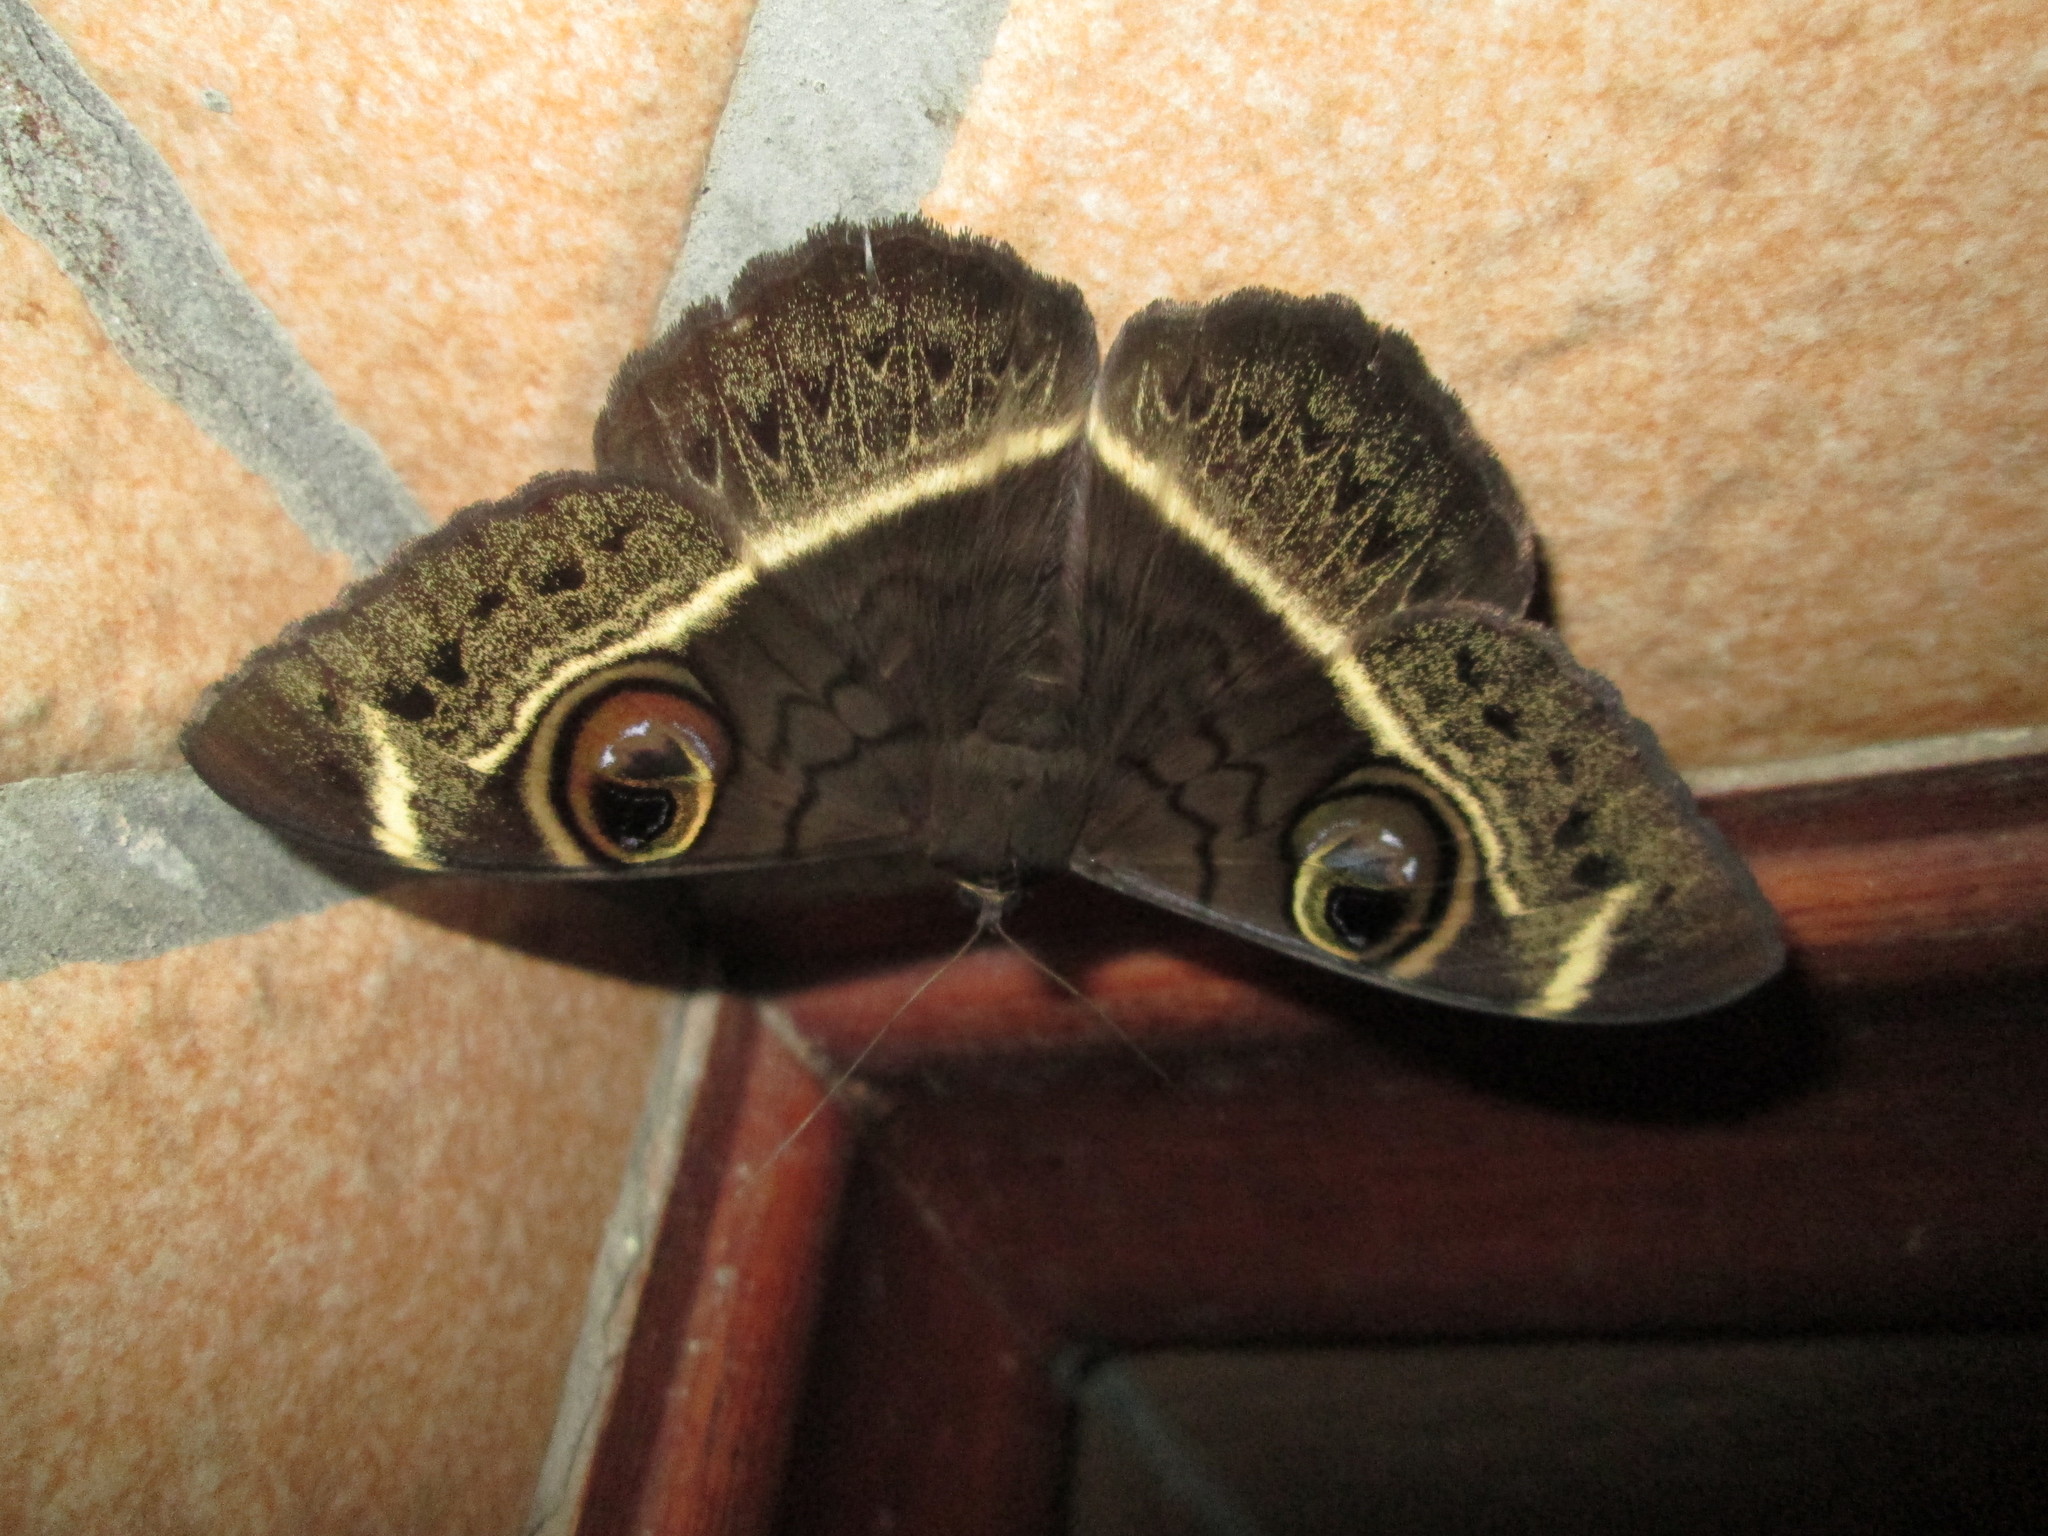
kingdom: Animalia
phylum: Arthropoda
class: Insecta
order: Lepidoptera
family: Erebidae
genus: Cyligramma
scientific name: Cyligramma latona
